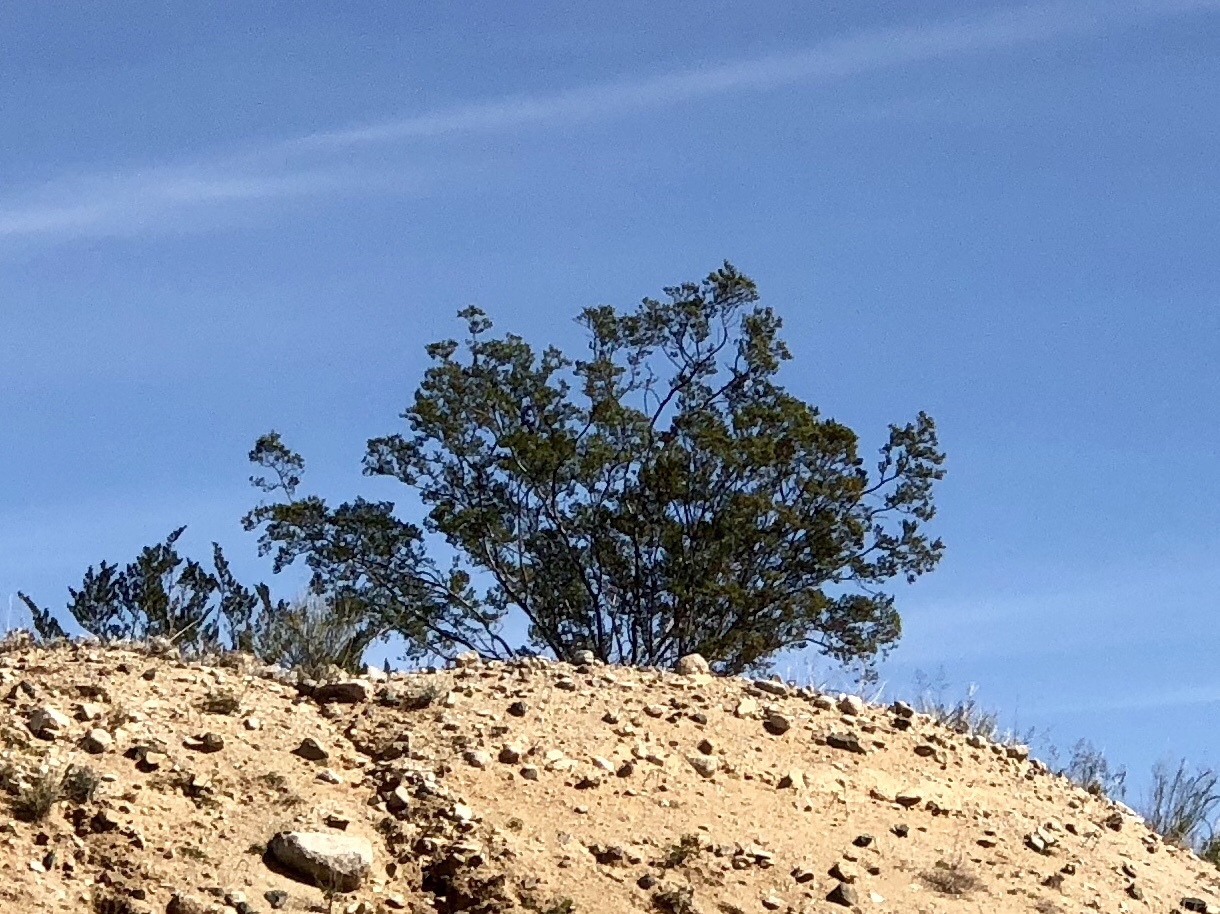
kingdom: Plantae
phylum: Tracheophyta
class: Magnoliopsida
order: Zygophyllales
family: Zygophyllaceae
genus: Larrea
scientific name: Larrea tridentata
